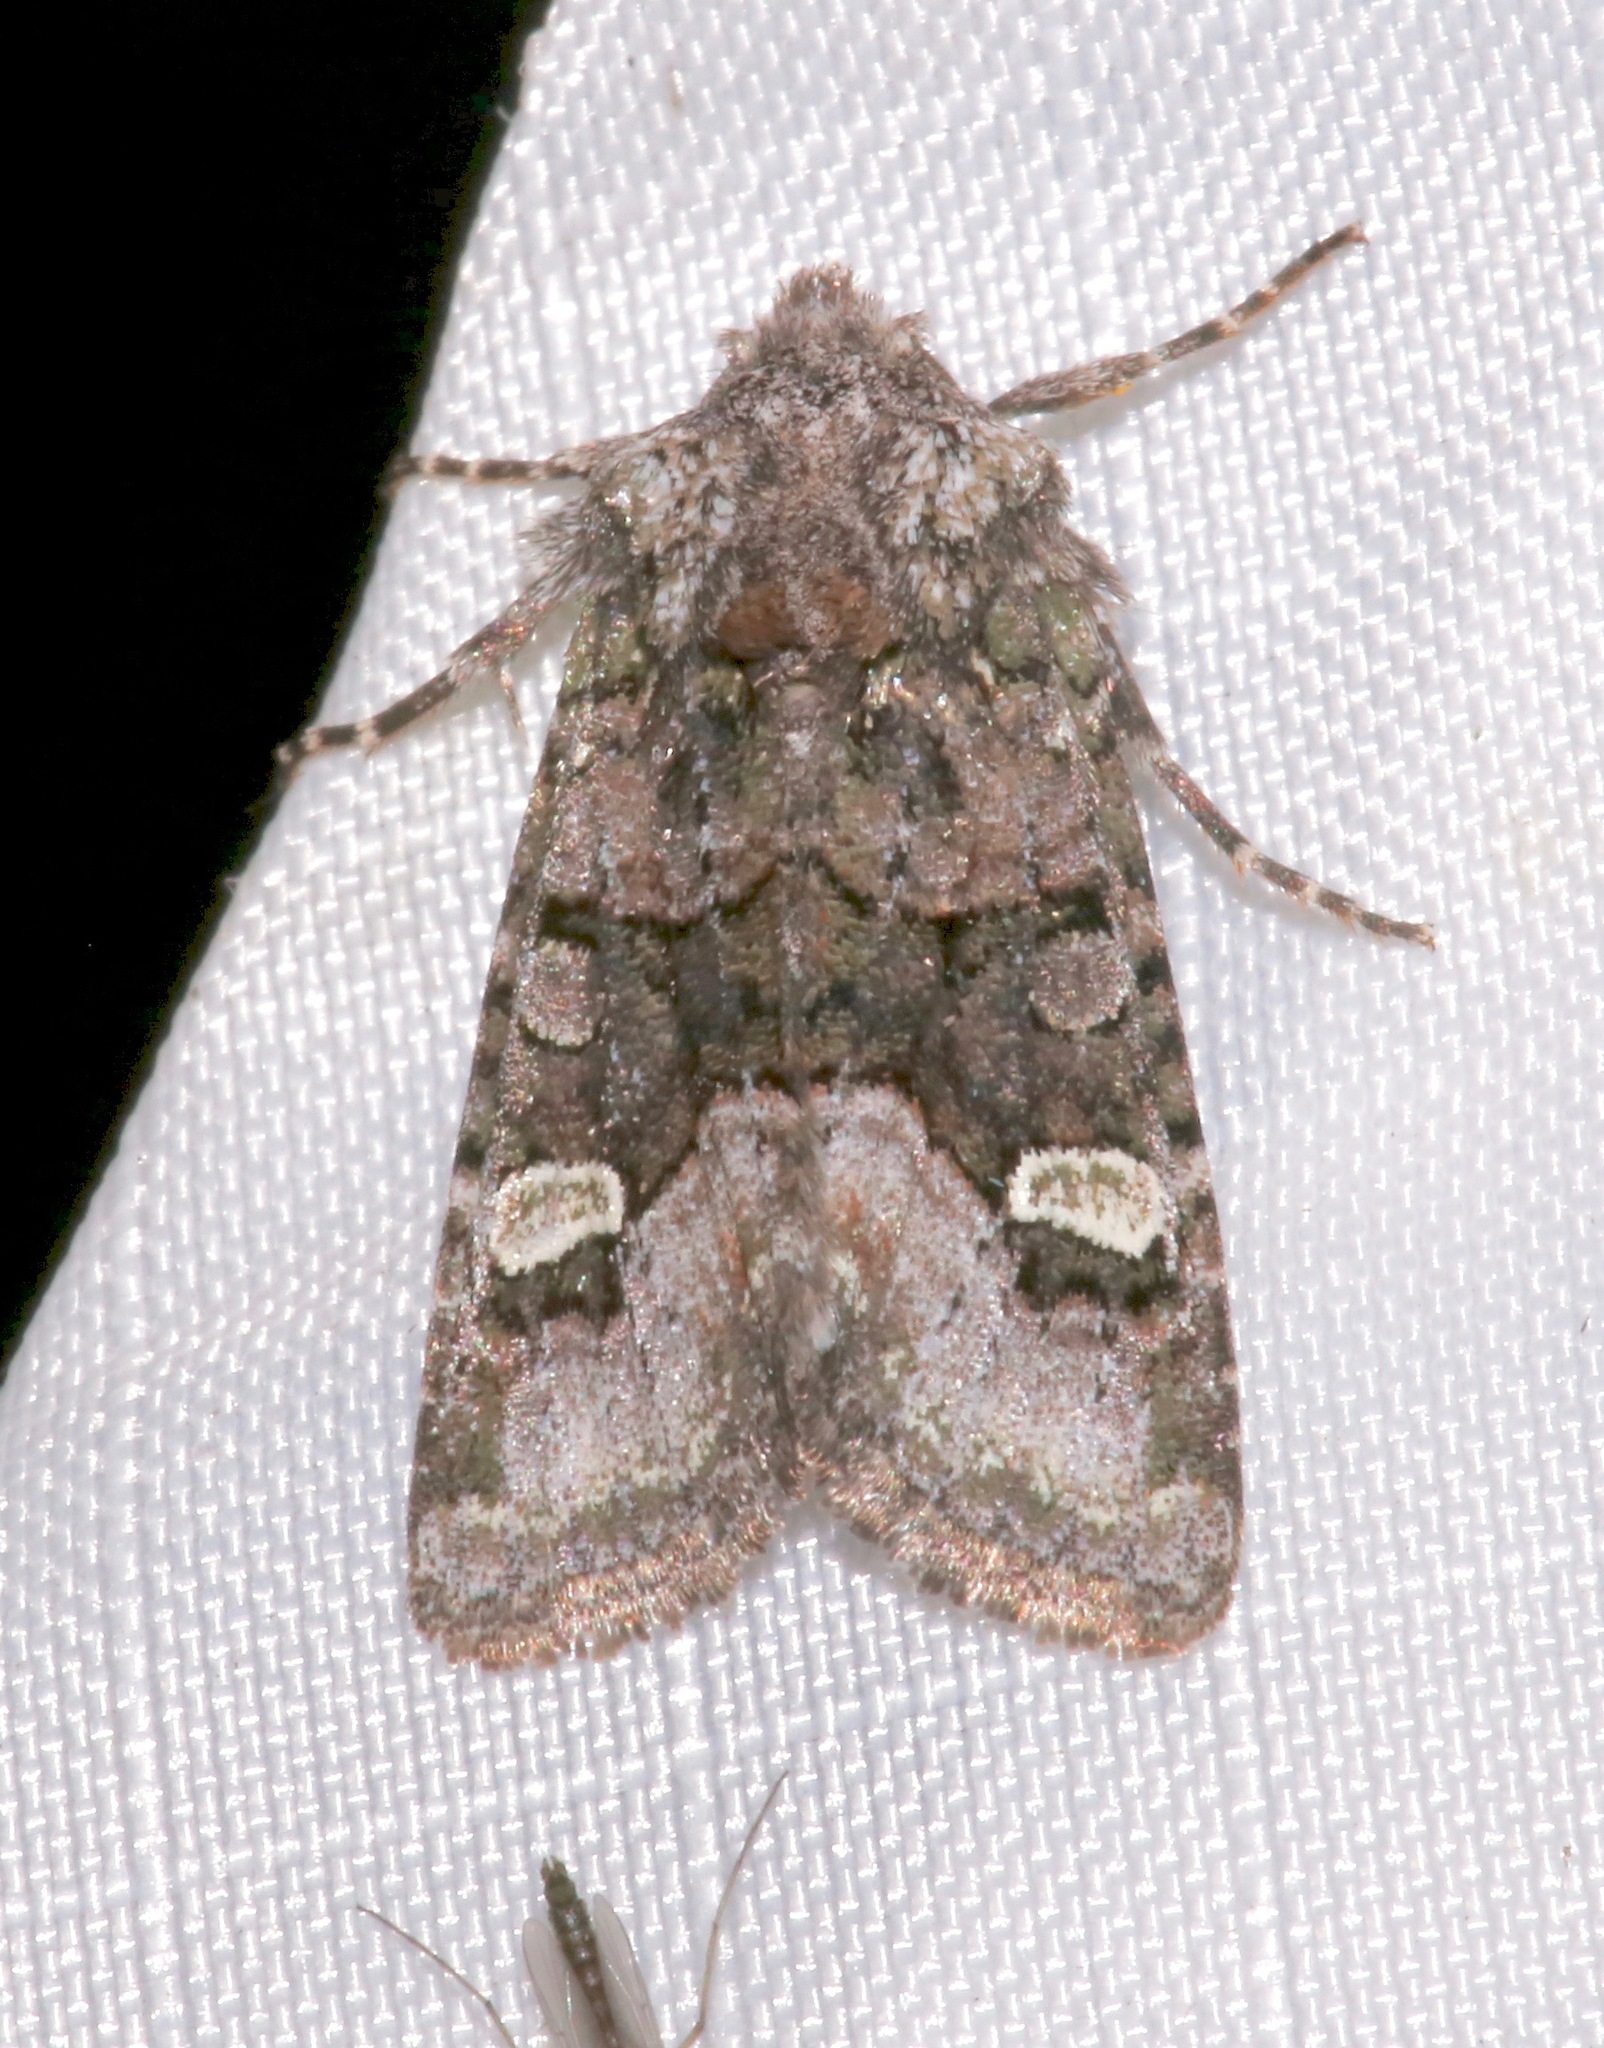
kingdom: Animalia
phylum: Arthropoda
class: Insecta
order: Lepidoptera
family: Noctuidae
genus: Lacinipolia
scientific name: Lacinipolia olivacea
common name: Olive arches moth
